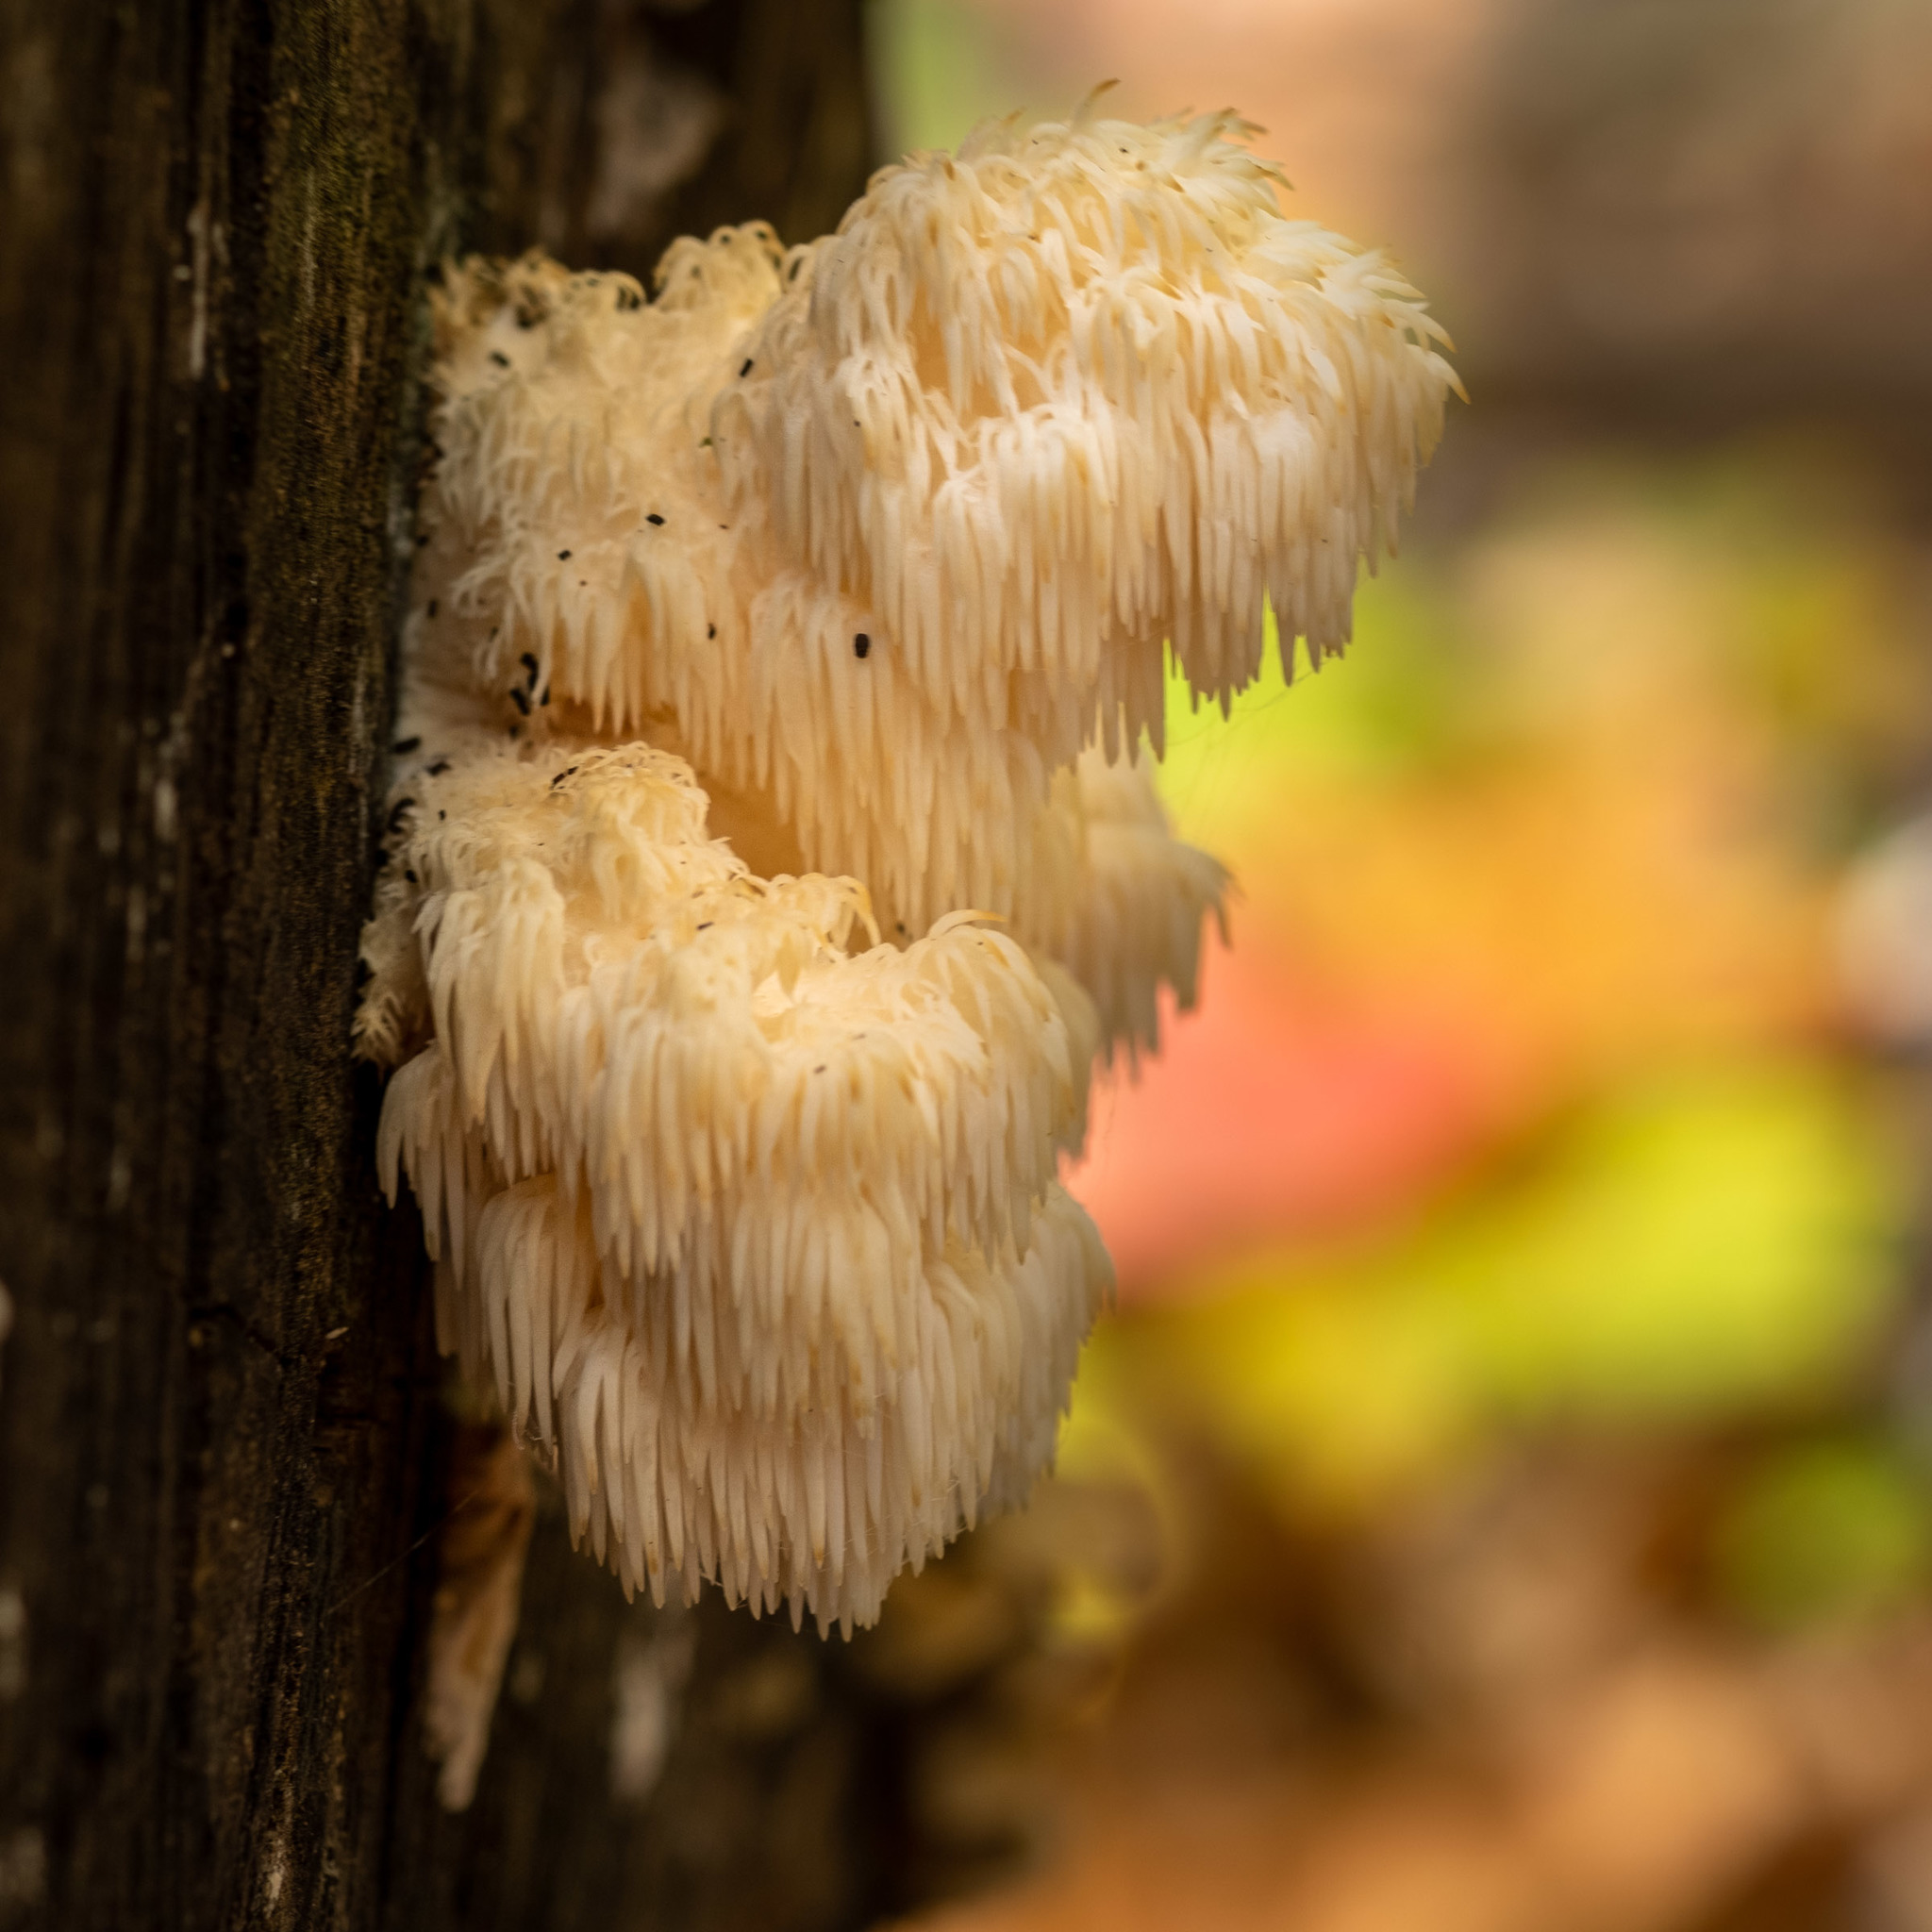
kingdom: Fungi
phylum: Basidiomycota
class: Agaricomycetes
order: Russulales
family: Hericiaceae
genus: Hericium
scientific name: Hericium americanum
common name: Bear's head tooth
